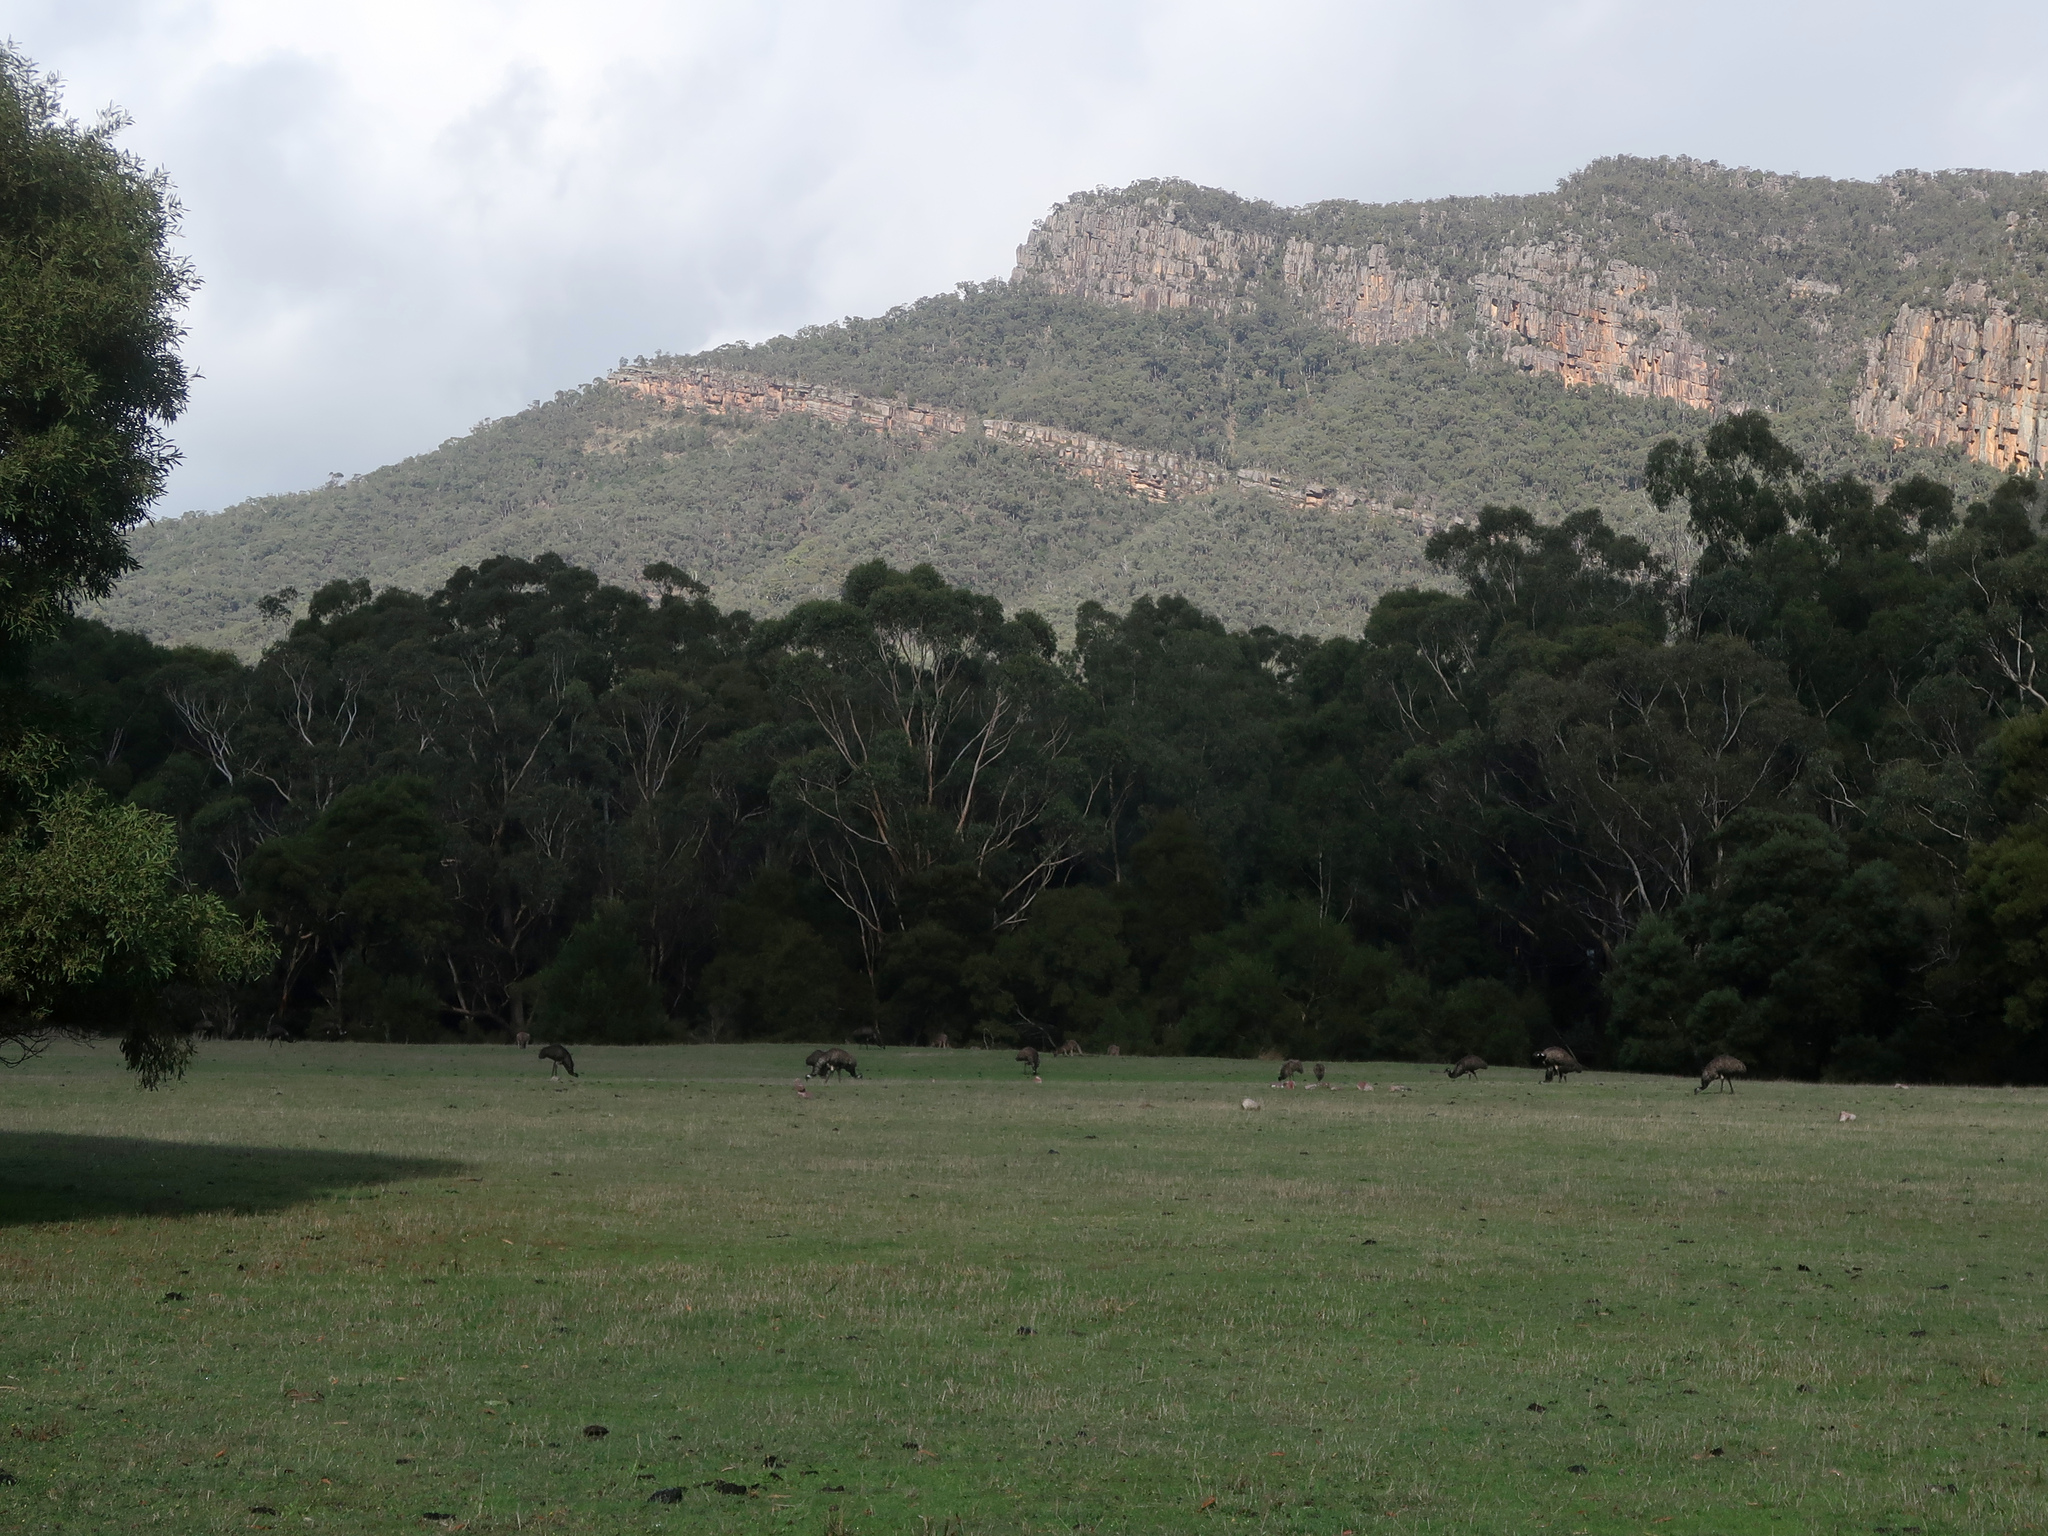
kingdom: Animalia
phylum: Chordata
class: Aves
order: Casuariiformes
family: Dromaiidae
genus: Dromaius
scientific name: Dromaius novaehollandiae
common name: Emu
